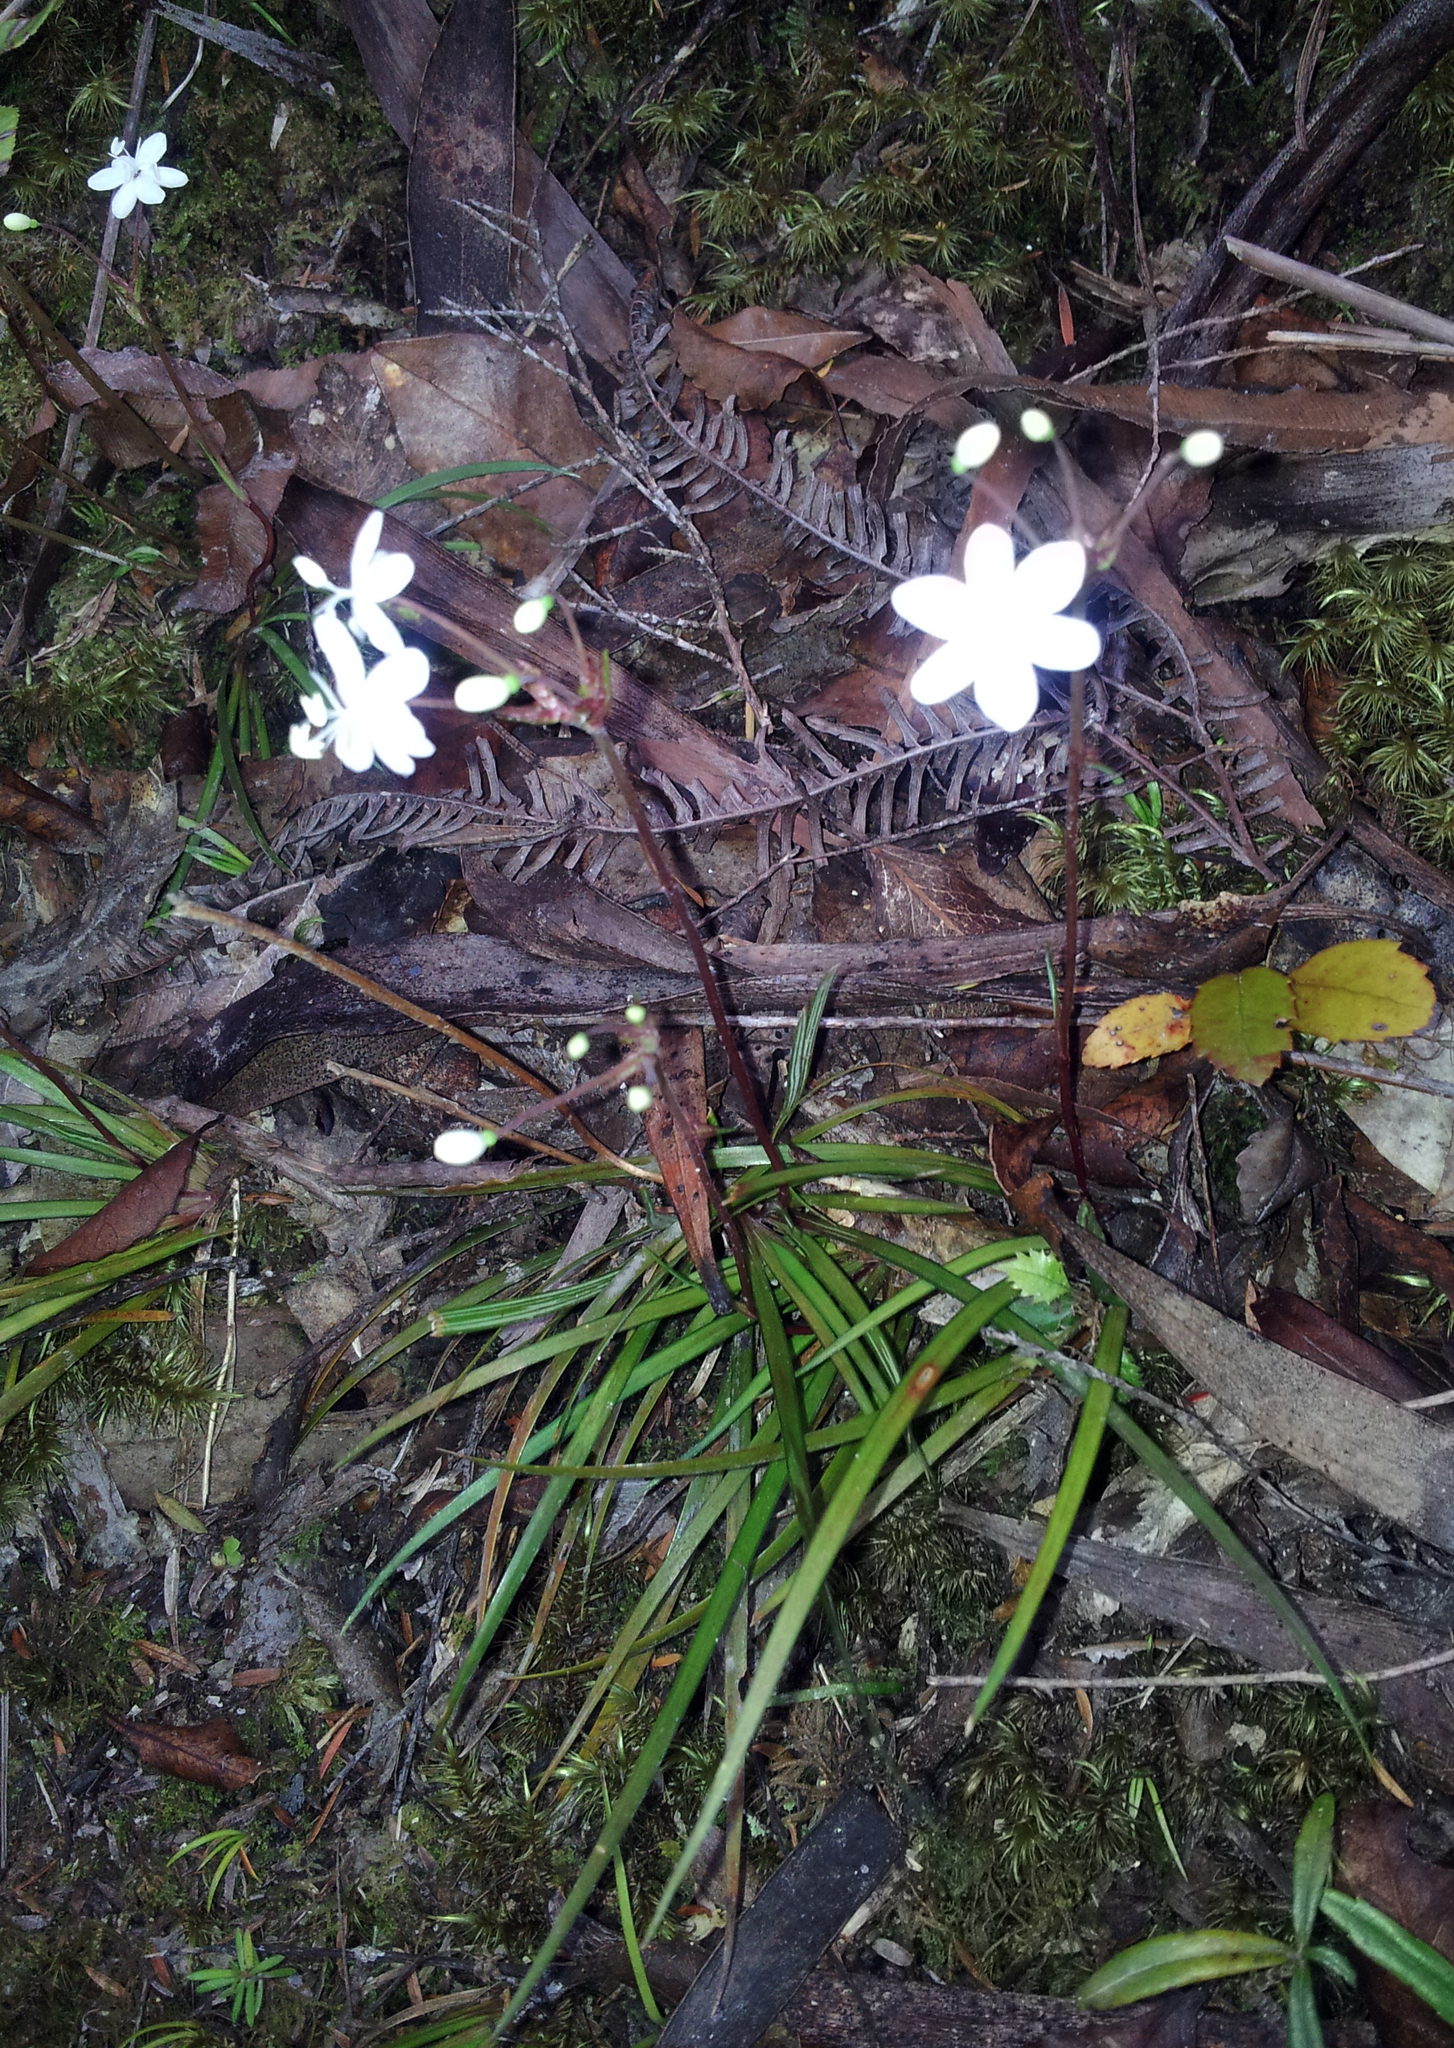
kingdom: Plantae
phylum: Tracheophyta
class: Liliopsida
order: Asparagales
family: Iridaceae
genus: Libertia
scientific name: Libertia micrantha
